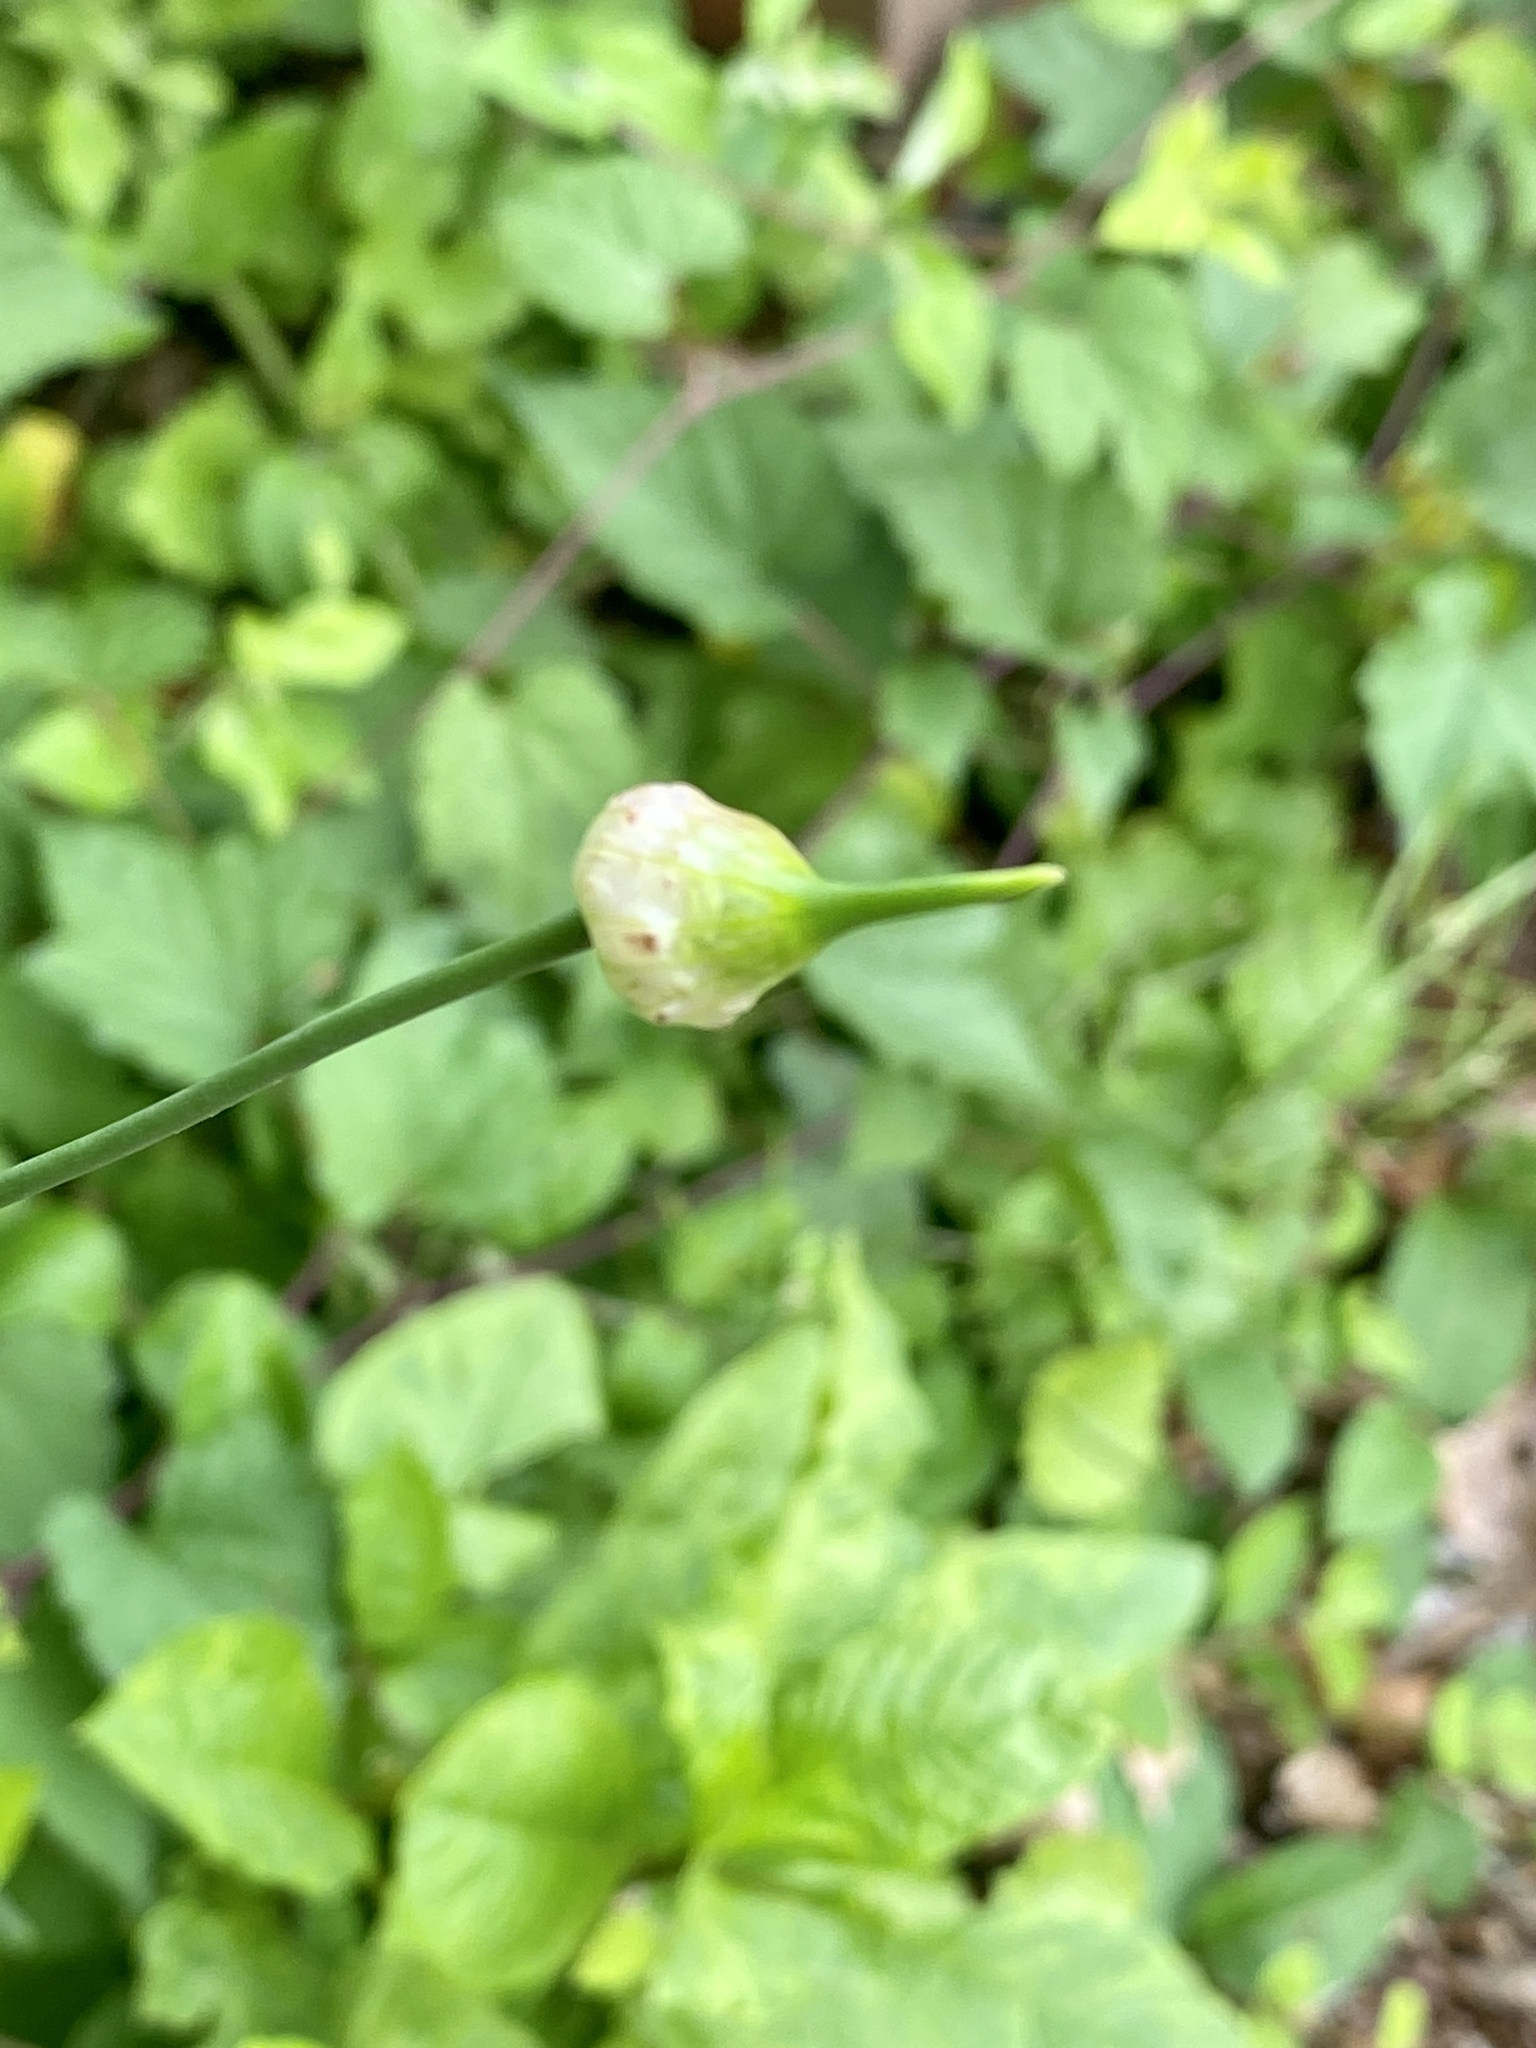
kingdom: Plantae
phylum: Tracheophyta
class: Liliopsida
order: Asparagales
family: Amaryllidaceae
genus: Allium
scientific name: Allium vineale
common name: Crow garlic
